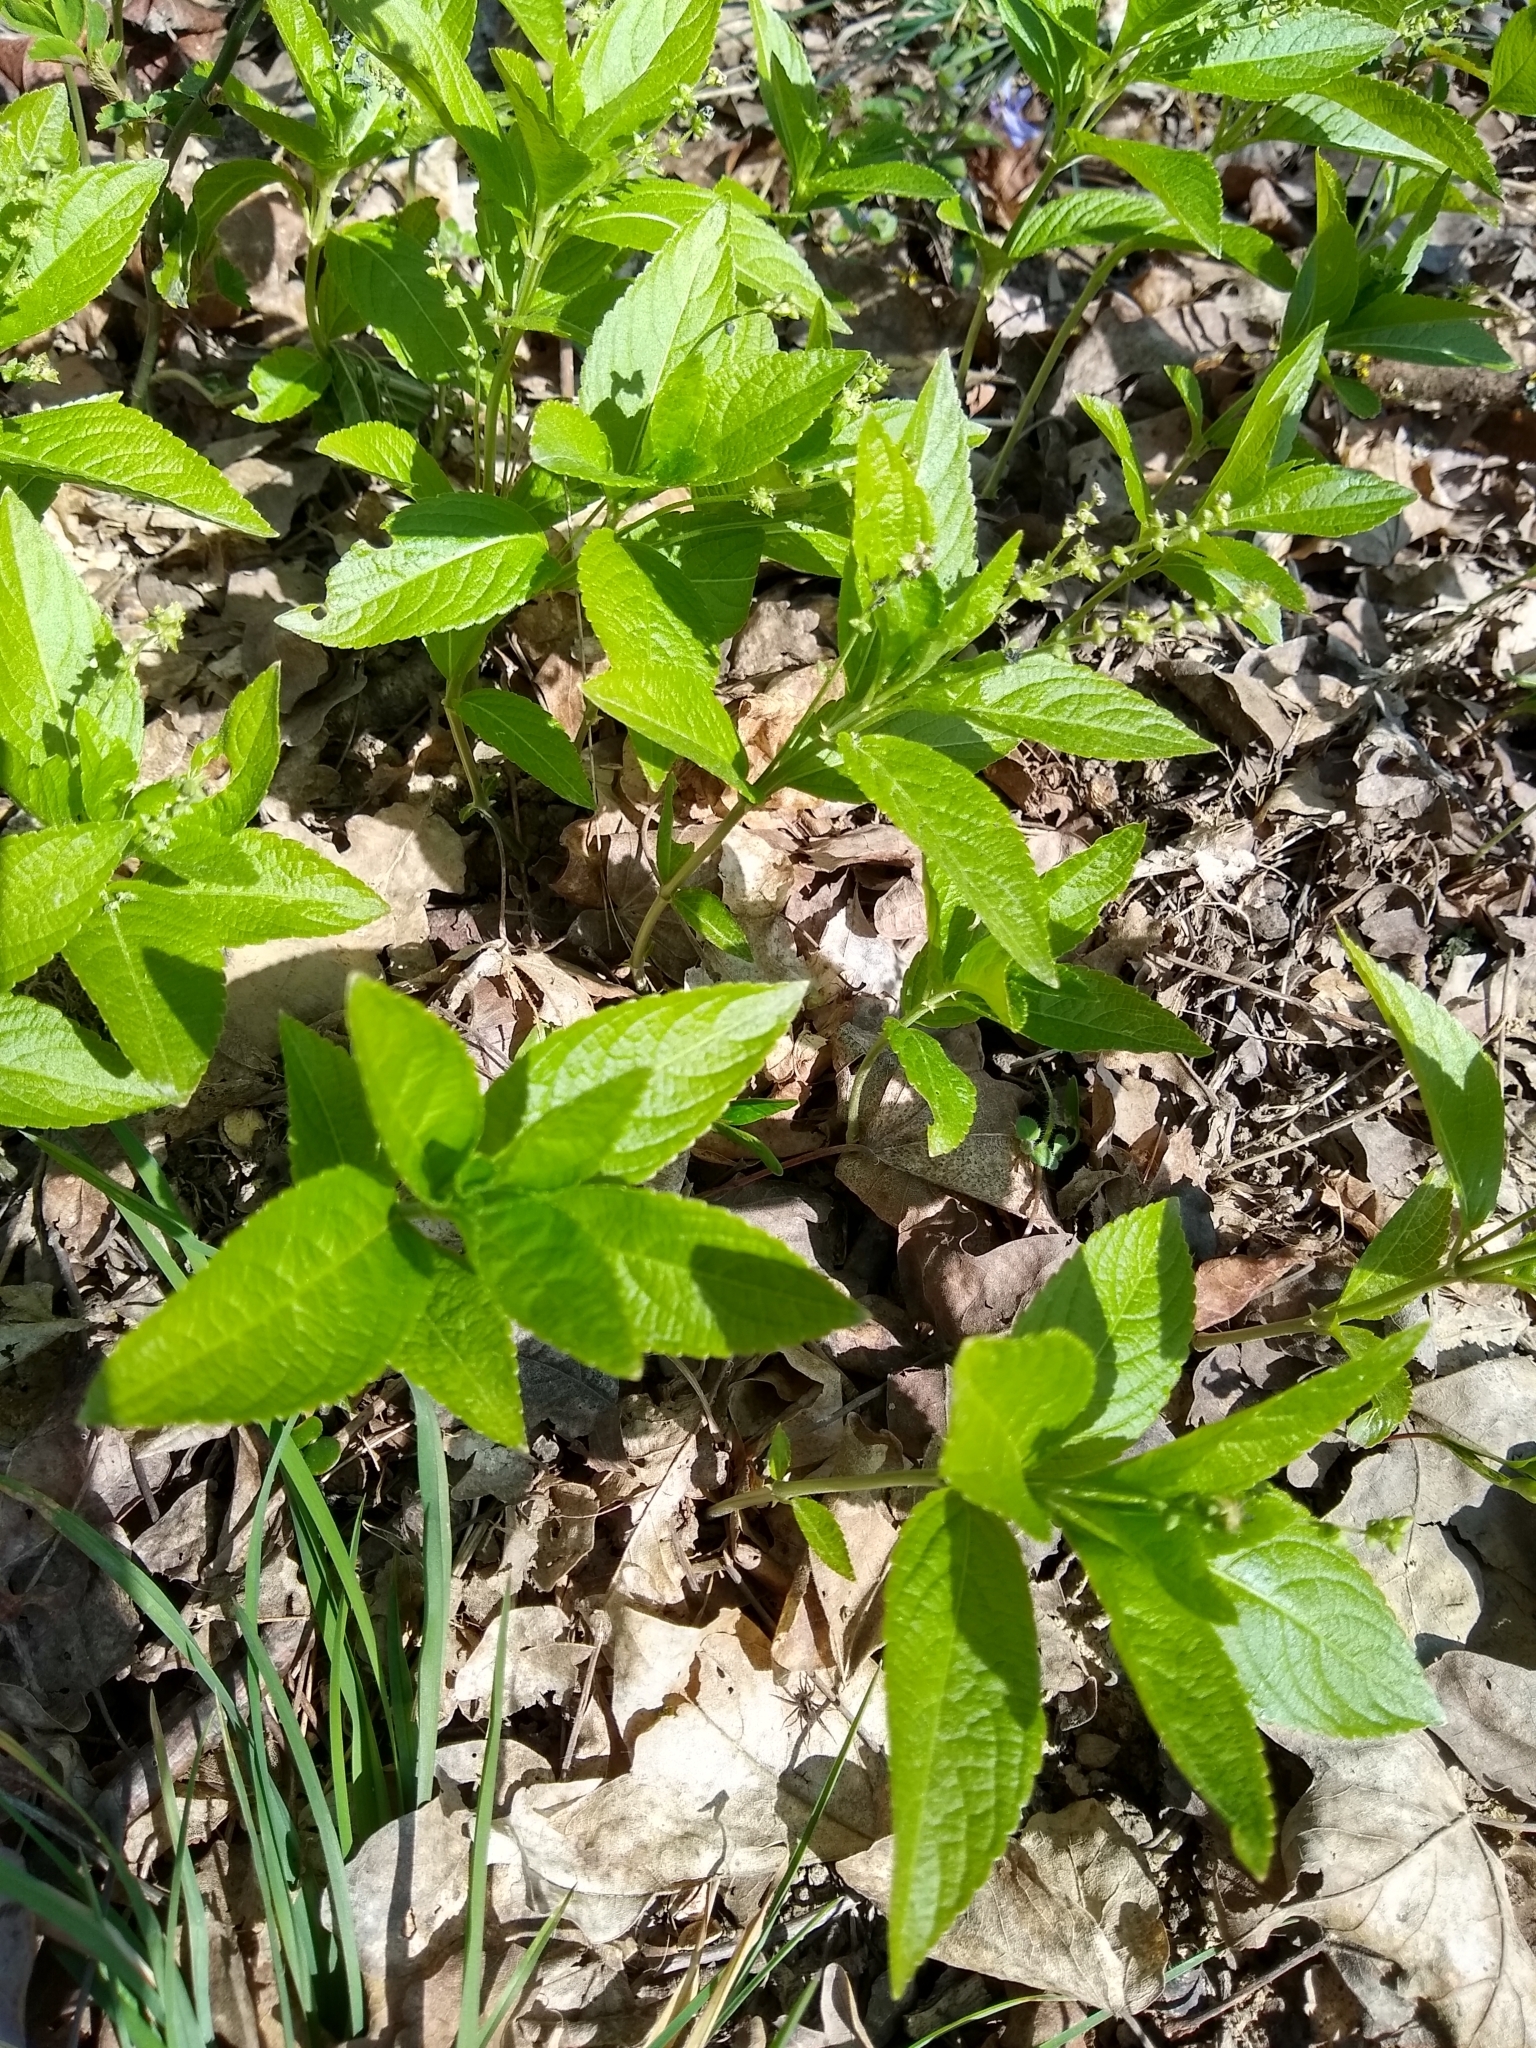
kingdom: Plantae
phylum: Tracheophyta
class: Magnoliopsida
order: Malpighiales
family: Euphorbiaceae
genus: Mercurialis
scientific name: Mercurialis perennis
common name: Dog mercury
